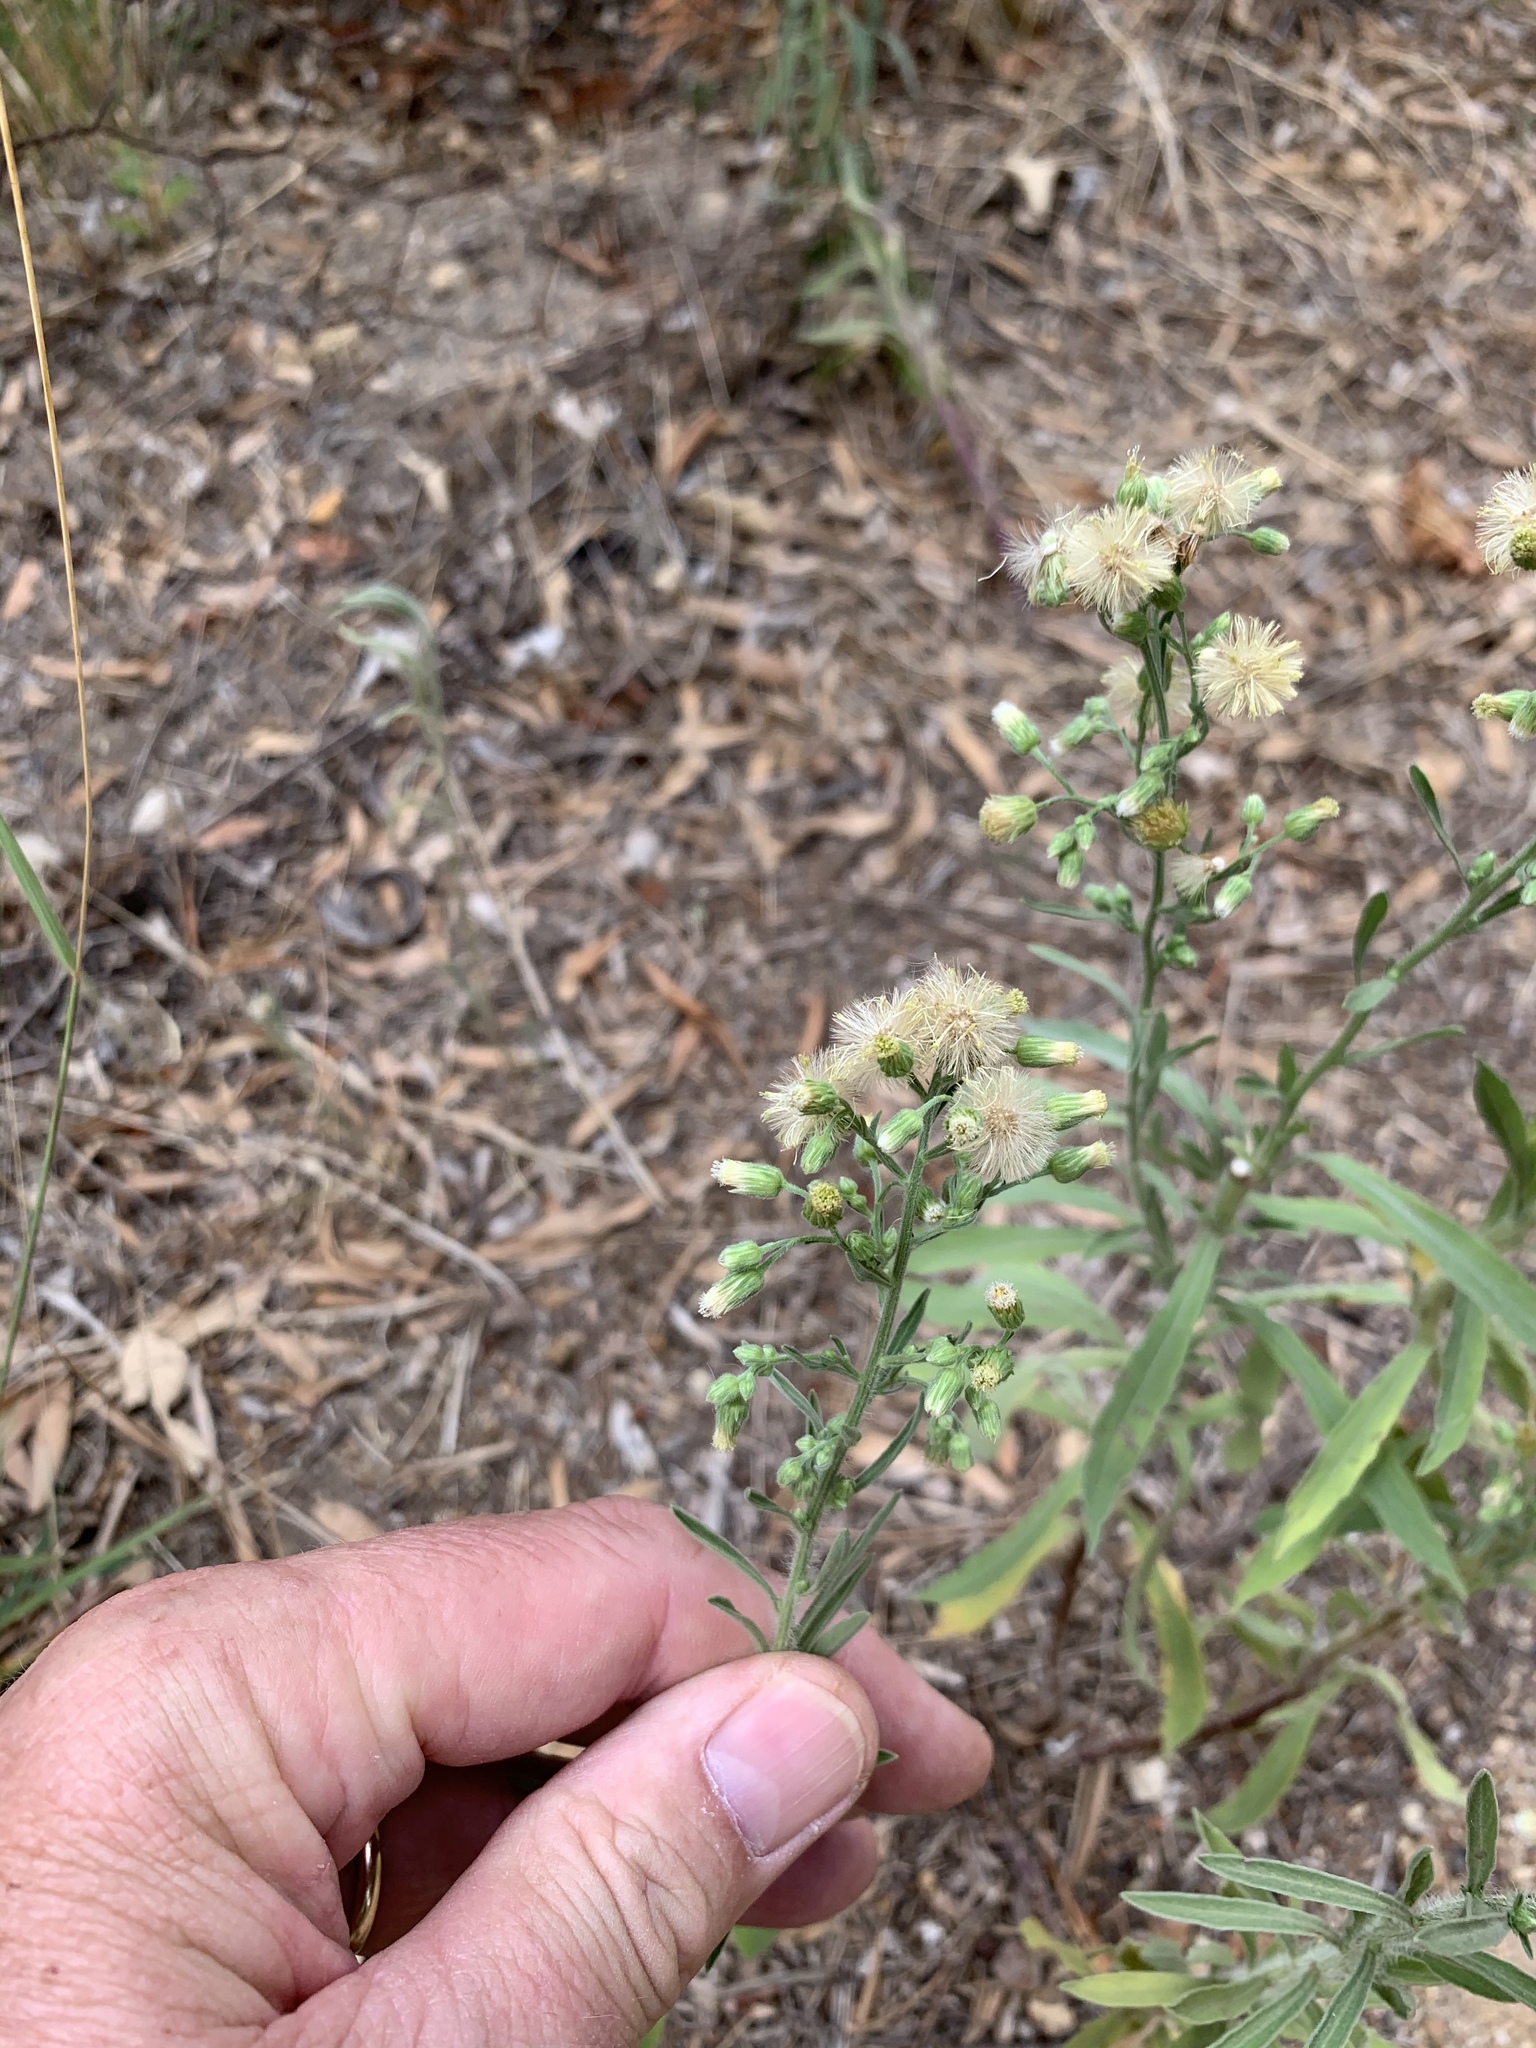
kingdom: Plantae
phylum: Tracheophyta
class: Magnoliopsida
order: Asterales
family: Asteraceae
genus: Erigeron
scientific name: Erigeron sumatrensis
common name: Daisy
